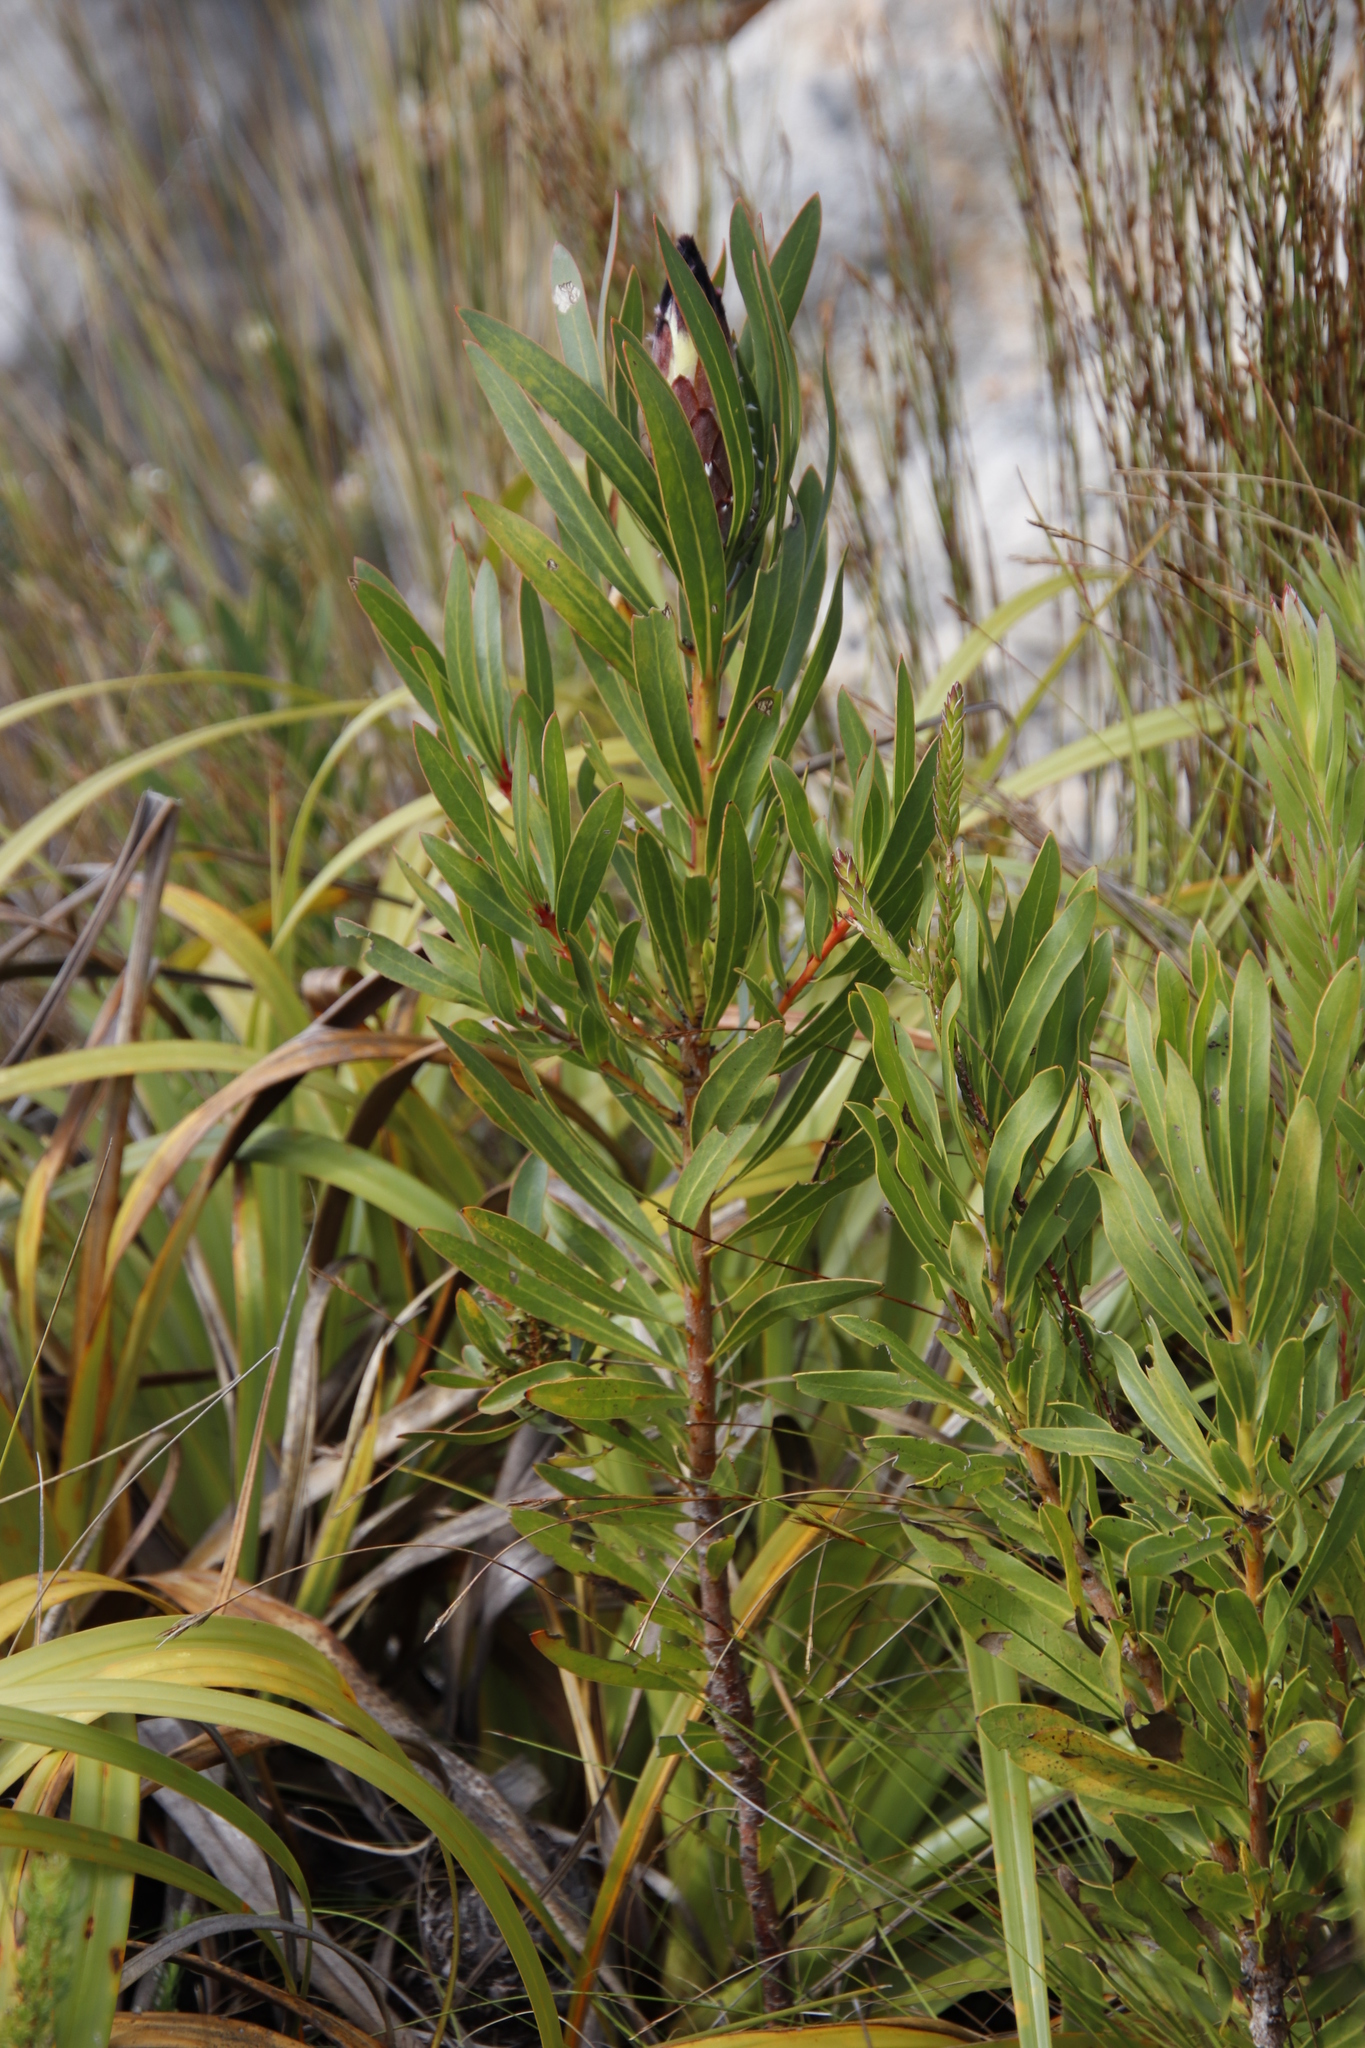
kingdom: Plantae
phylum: Tracheophyta
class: Magnoliopsida
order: Proteales
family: Proteaceae
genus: Protea
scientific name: Protea lepidocarpodendron
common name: Black-bearded protea
